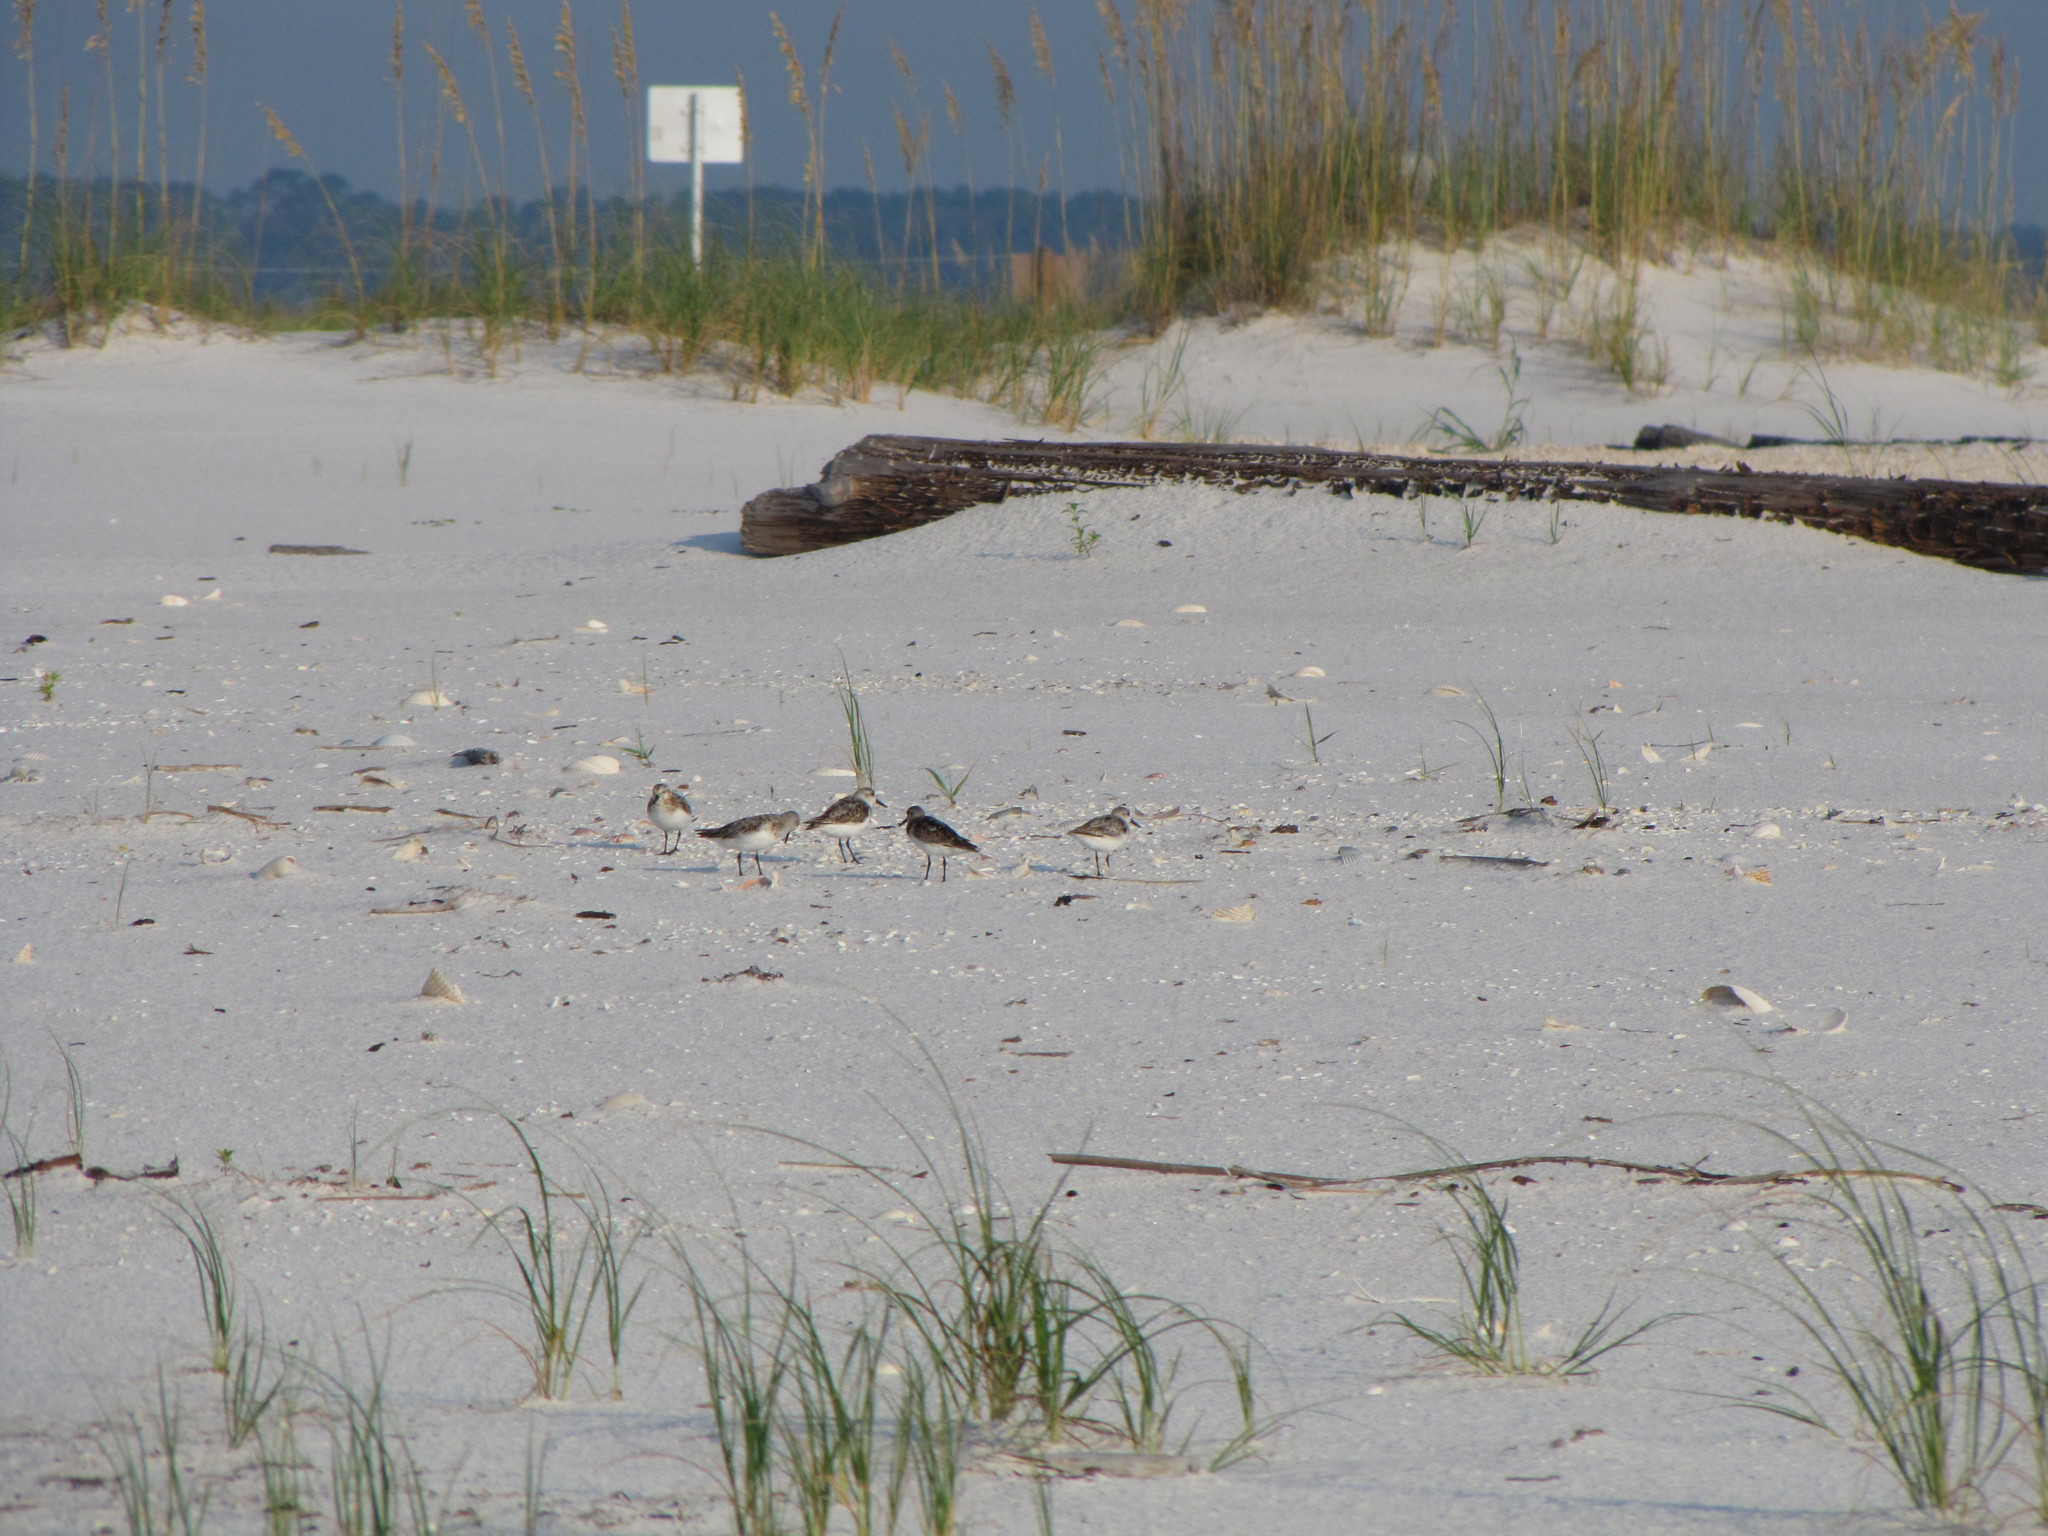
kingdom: Animalia
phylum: Chordata
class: Aves
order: Charadriiformes
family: Scolopacidae
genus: Calidris
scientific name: Calidris alba
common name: Sanderling
